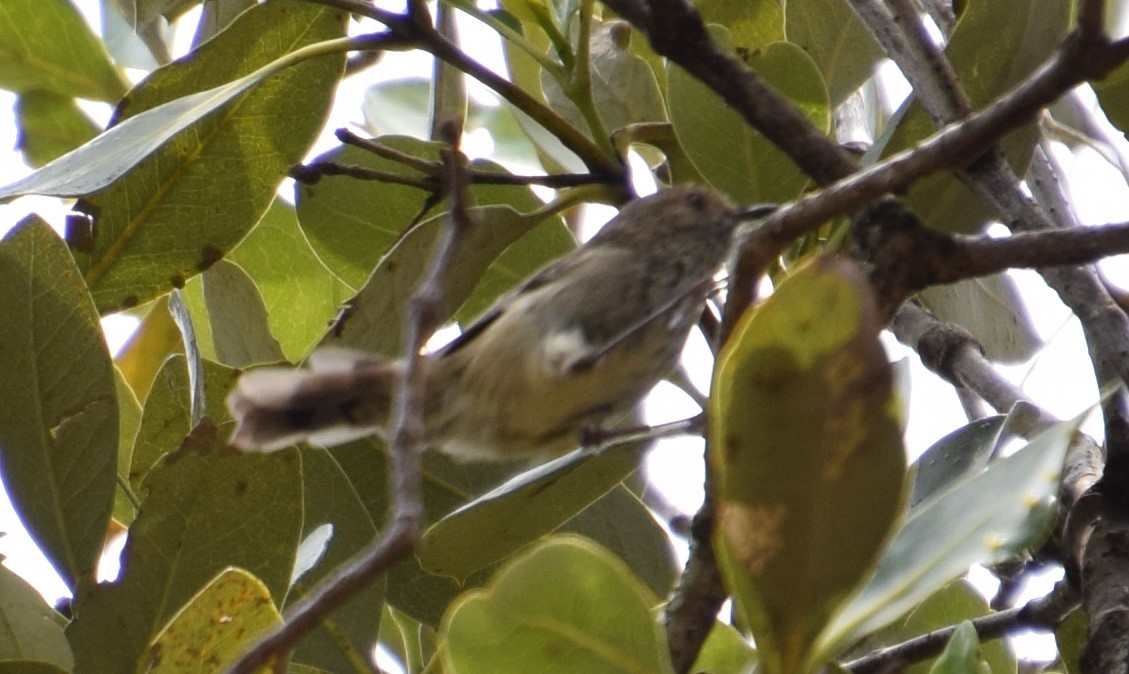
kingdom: Animalia
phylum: Chordata
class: Aves
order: Passeriformes
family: Acanthizidae
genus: Acanthiza
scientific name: Acanthiza pusilla
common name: Brown thornbill
